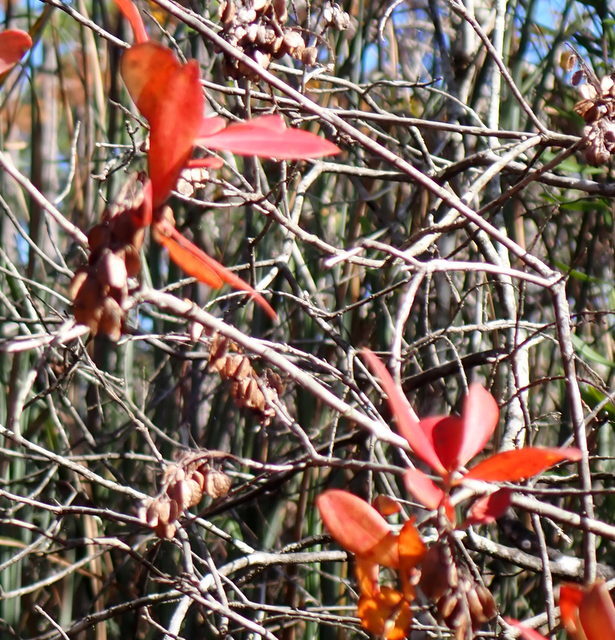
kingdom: Plantae
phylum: Tracheophyta
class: Magnoliopsida
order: Ericales
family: Cyrillaceae
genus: Cliftonia
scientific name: Cliftonia monophylla
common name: Titi
